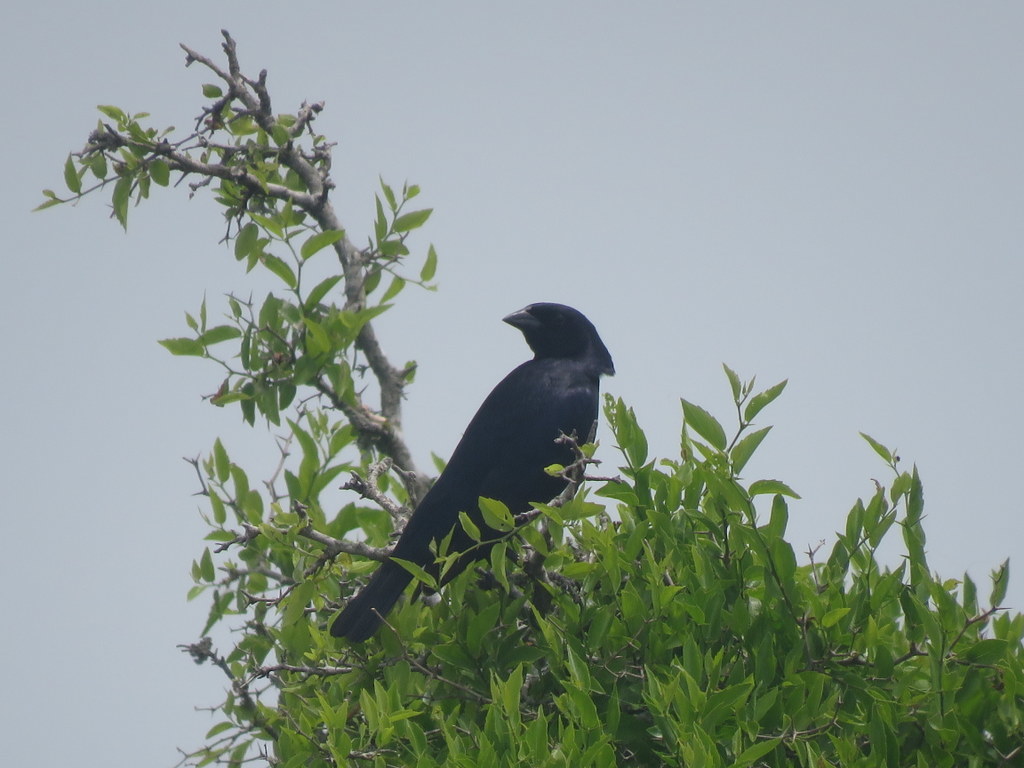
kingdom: Animalia
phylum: Chordata
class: Aves
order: Passeriformes
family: Icteridae
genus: Molothrus
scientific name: Molothrus bonariensis
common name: Shiny cowbird
